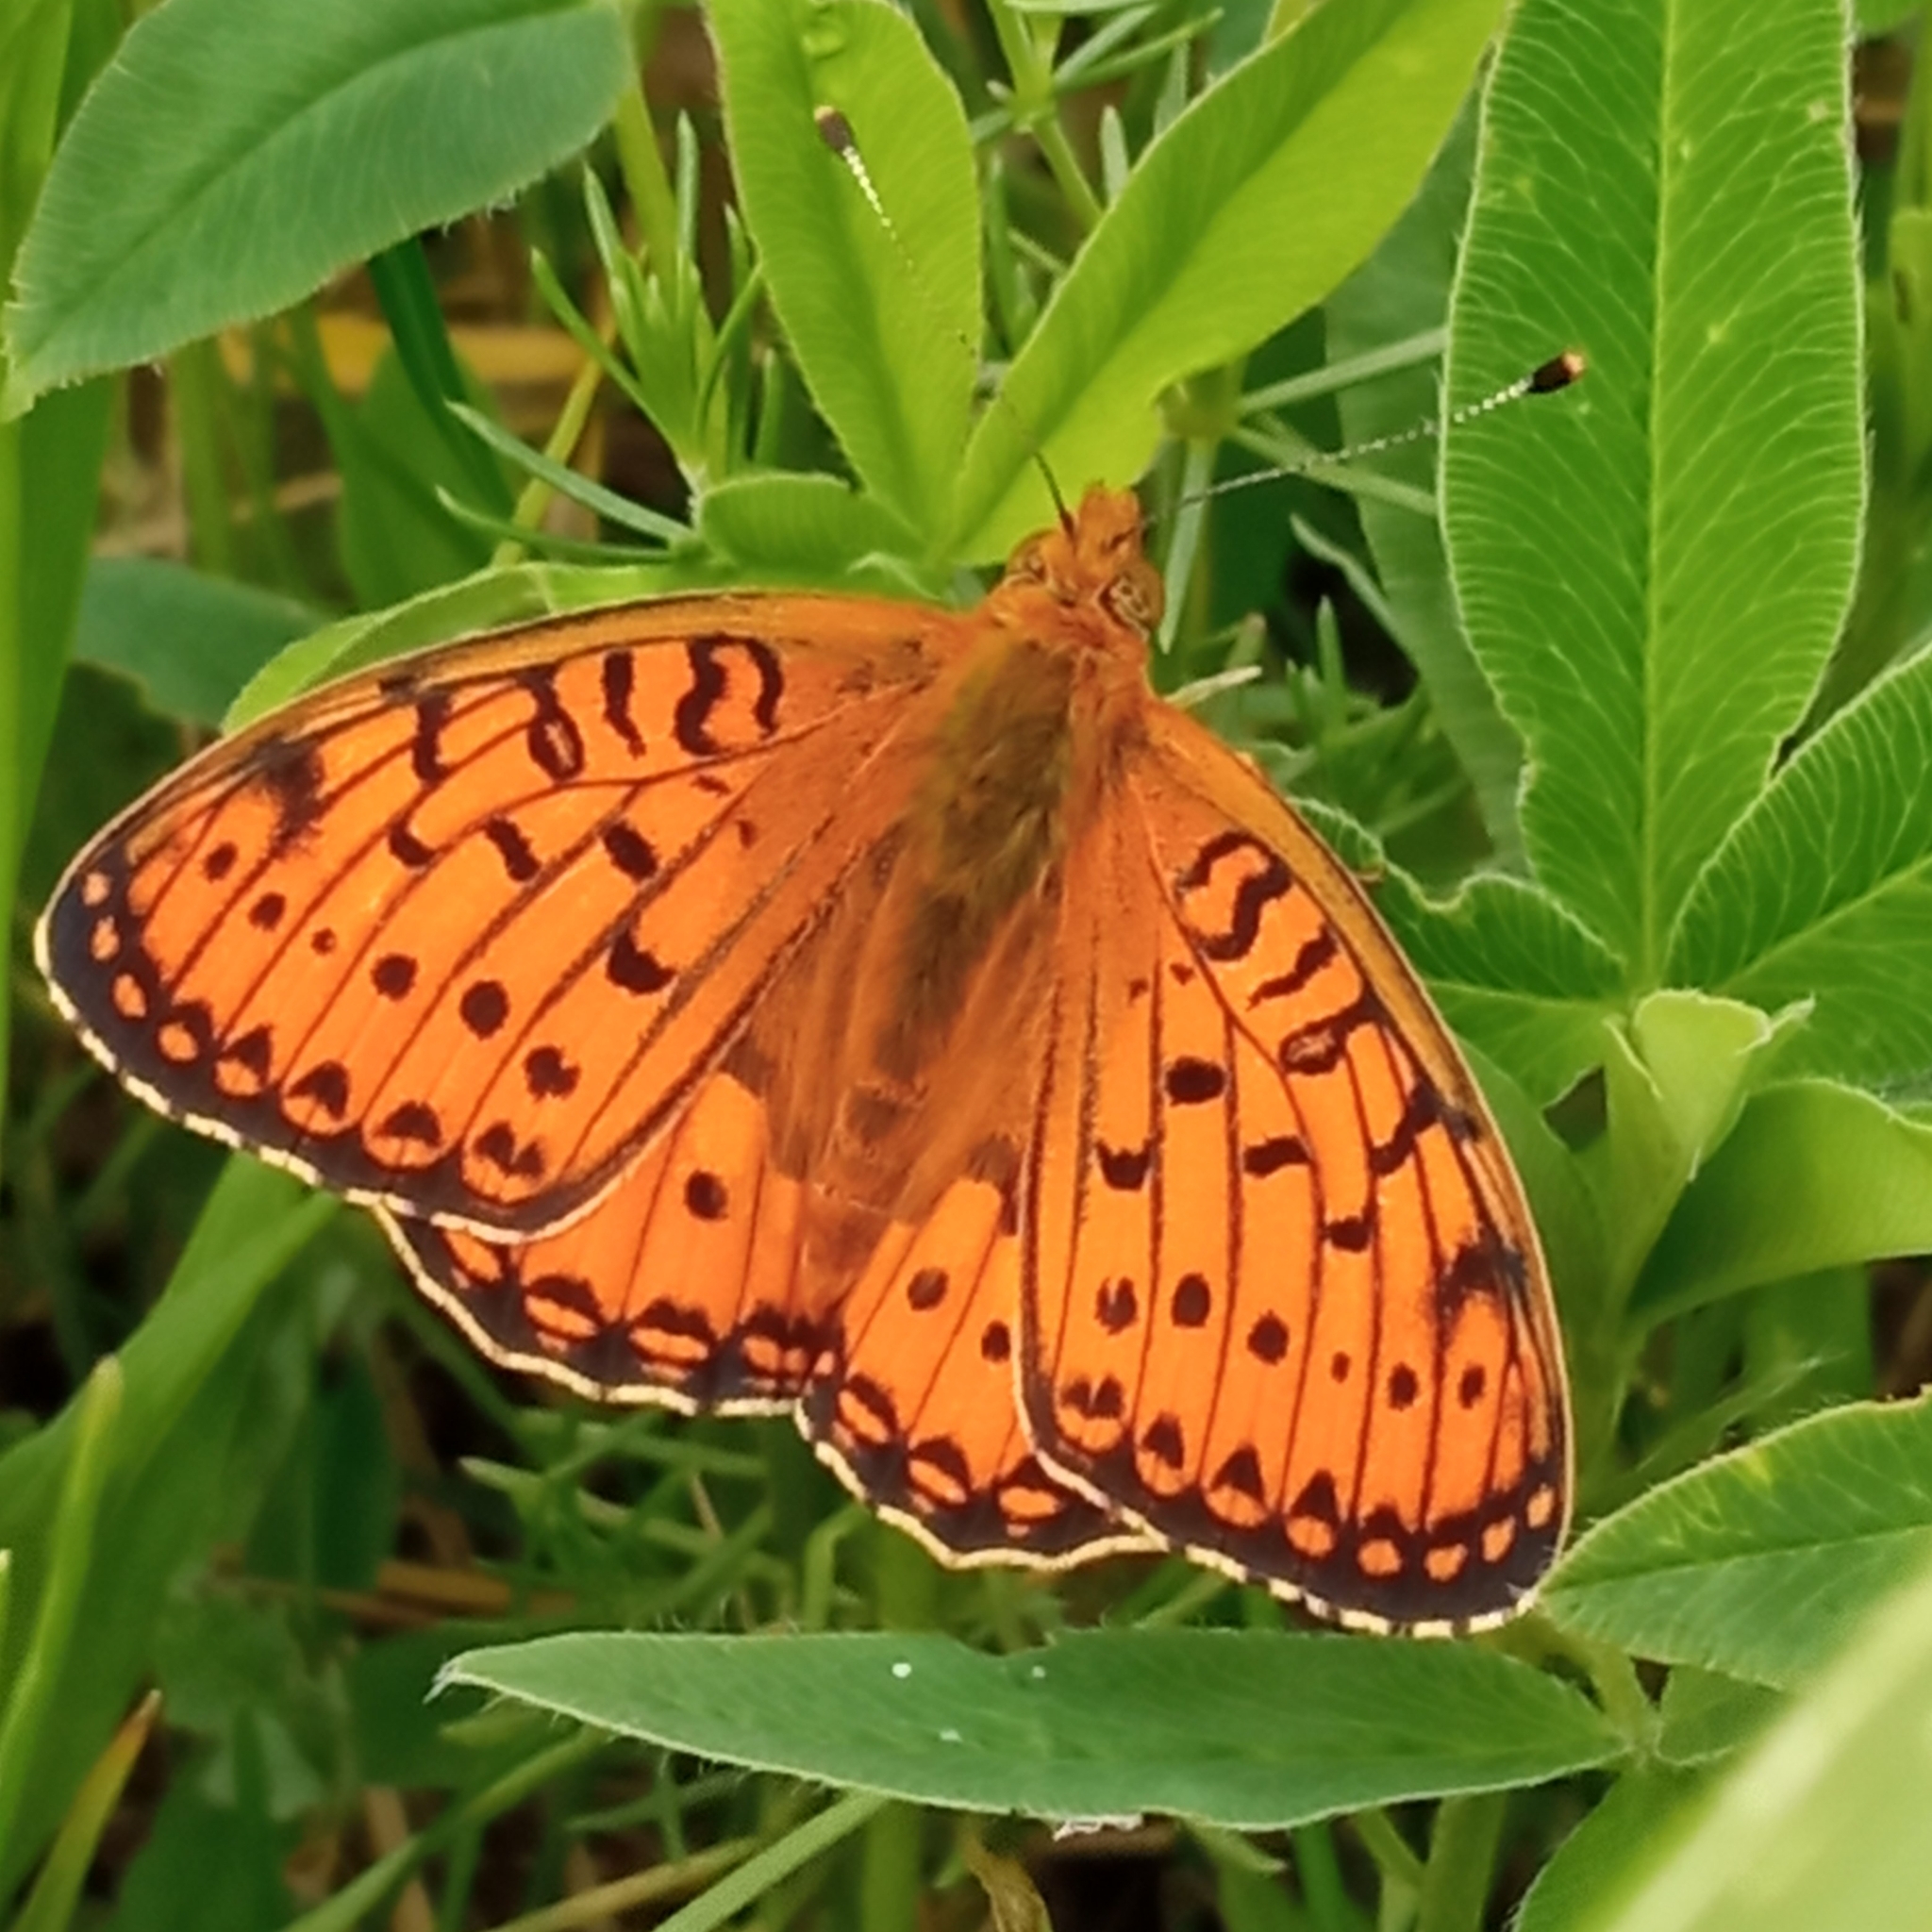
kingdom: Animalia
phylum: Arthropoda
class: Insecta
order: Lepidoptera
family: Nymphalidae
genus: Speyeria
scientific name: Speyeria aglaja
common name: Dark green fritillary
